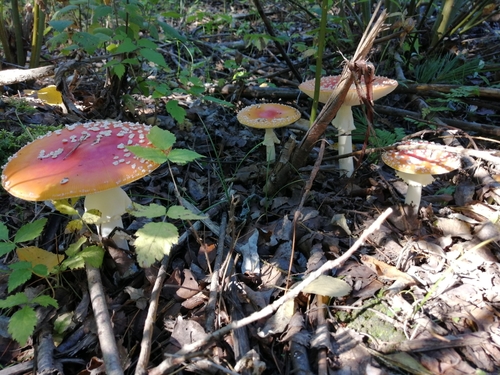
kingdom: Fungi
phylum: Basidiomycota
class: Agaricomycetes
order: Agaricales
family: Amanitaceae
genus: Amanita
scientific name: Amanita muscaria
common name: Fly agaric
